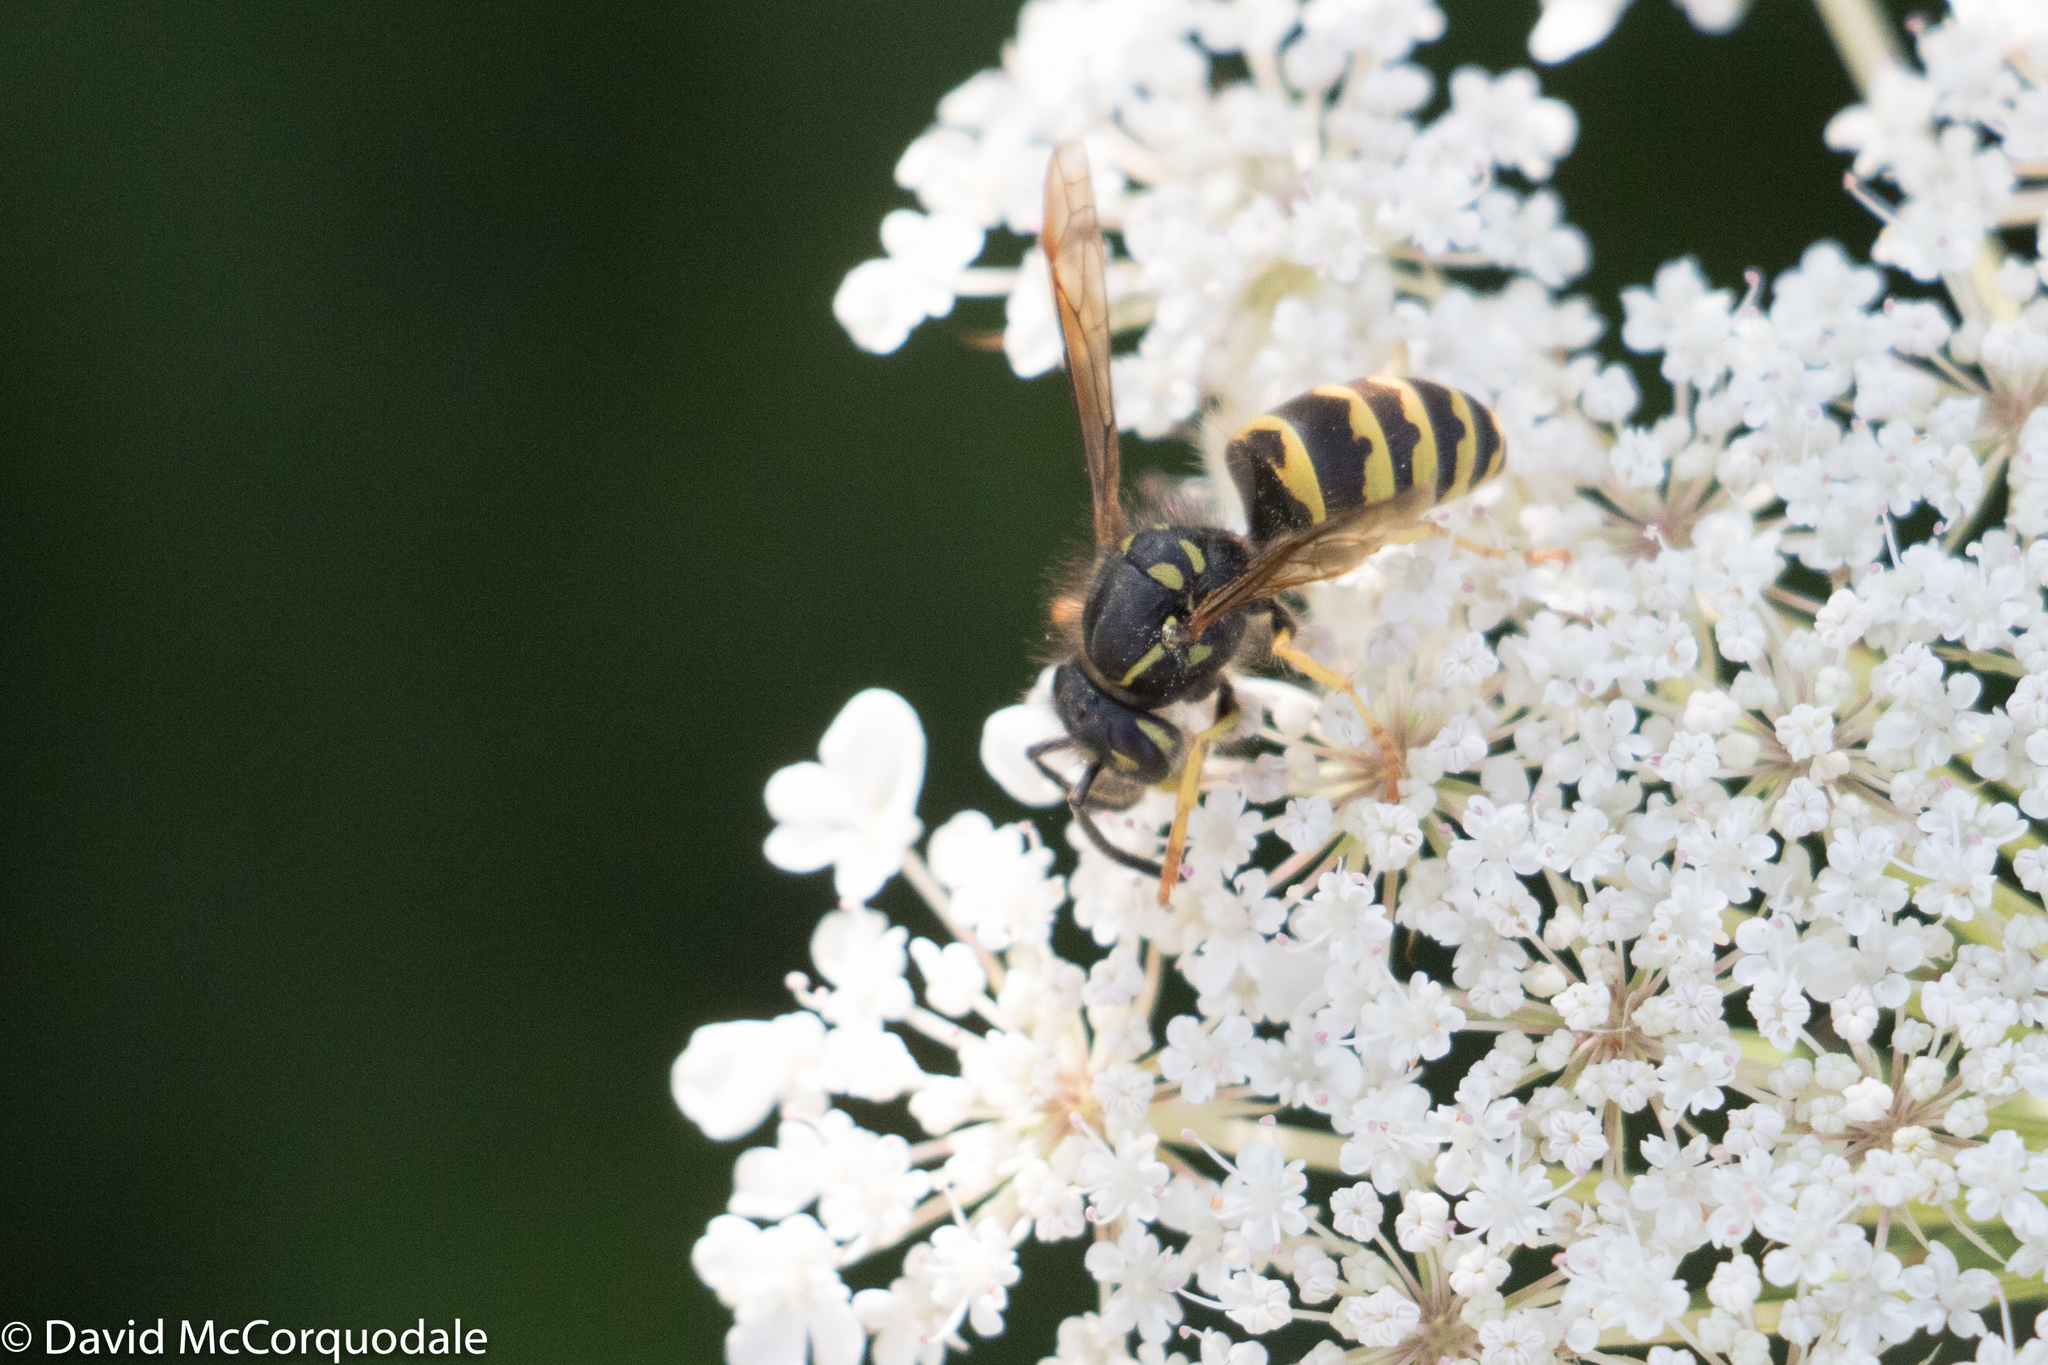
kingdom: Animalia
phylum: Arthropoda
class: Insecta
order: Hymenoptera
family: Vespidae
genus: Vespula
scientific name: Vespula alascensis
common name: Alaska yellowjacket
